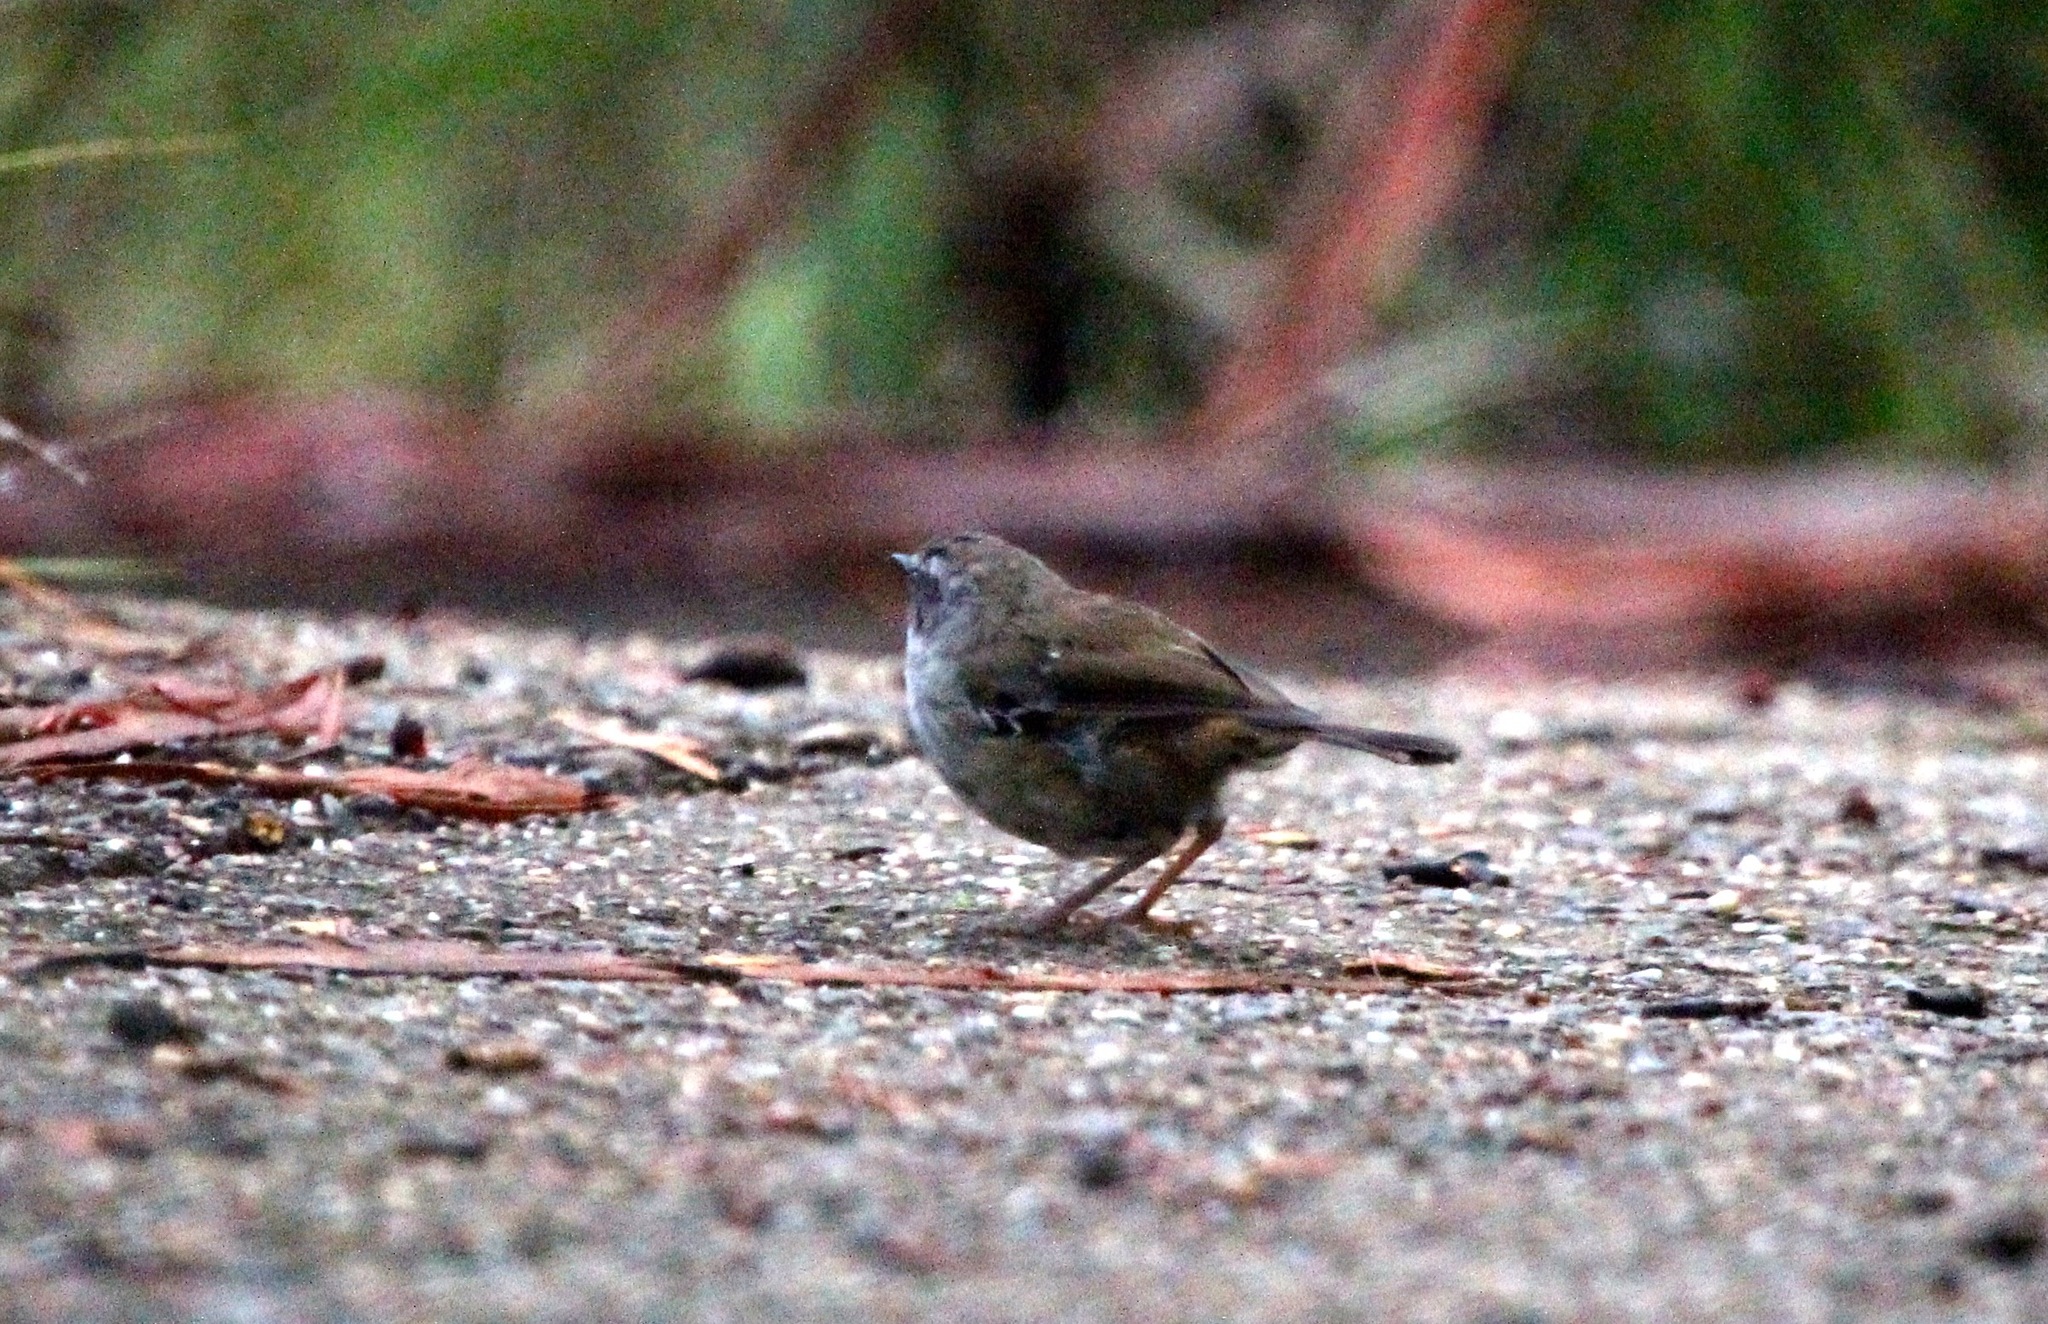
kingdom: Animalia
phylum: Chordata
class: Aves
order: Passeriformes
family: Acanthizidae
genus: Sericornis
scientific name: Sericornis frontalis
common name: White-browed scrubwren
